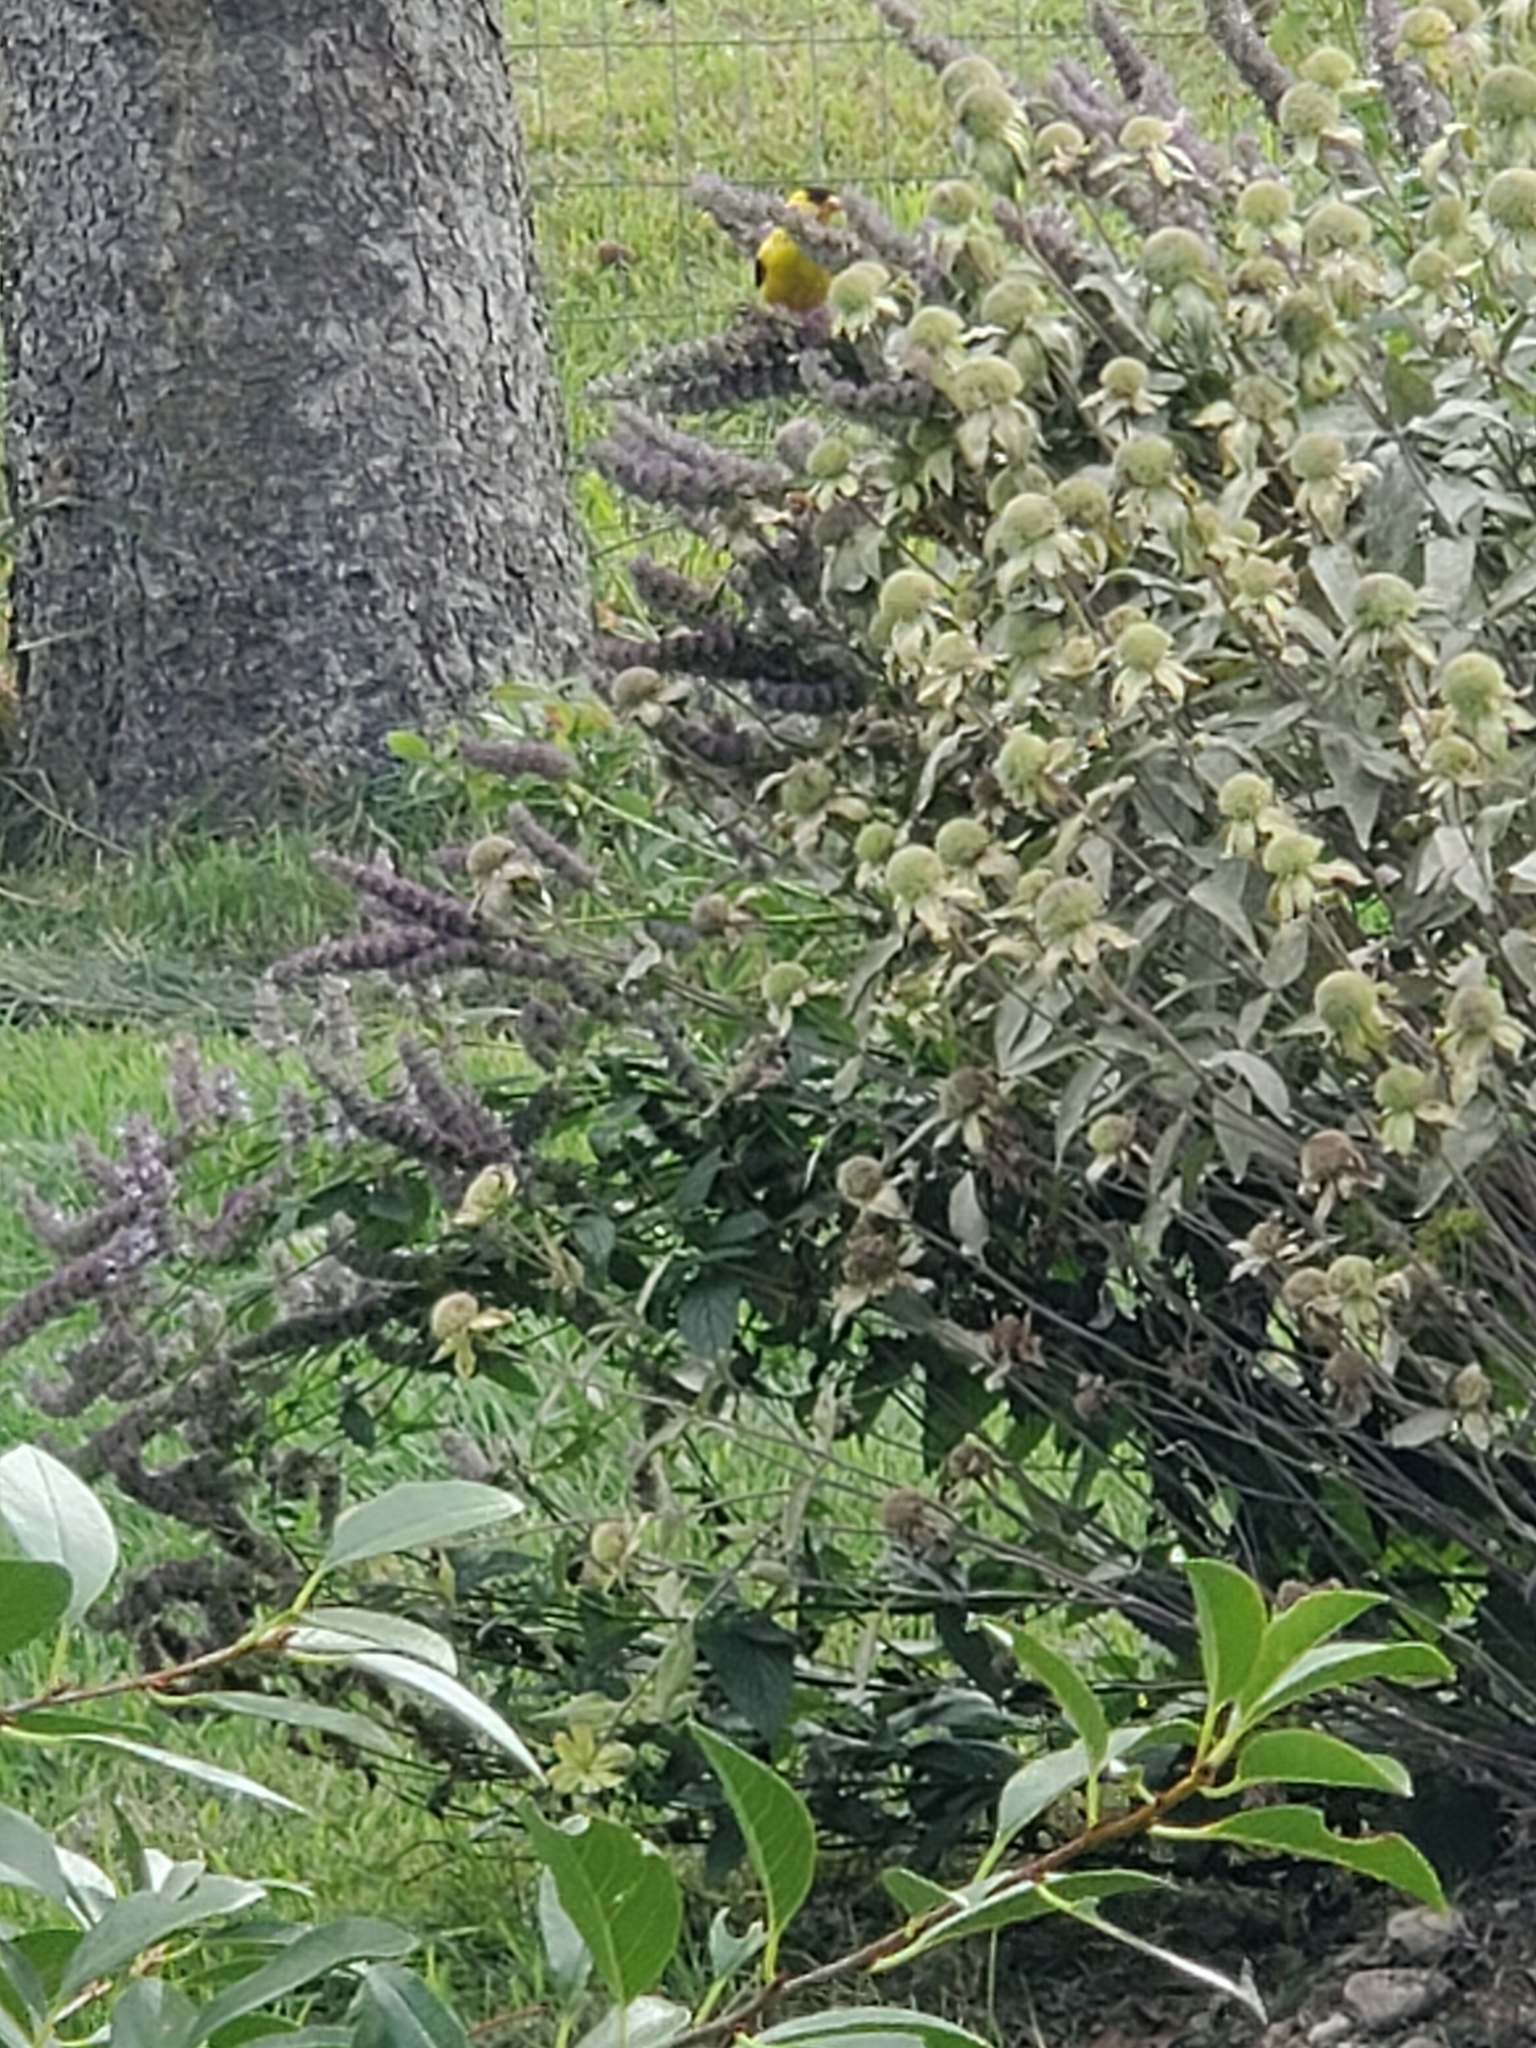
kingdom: Animalia
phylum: Chordata
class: Aves
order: Passeriformes
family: Fringillidae
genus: Spinus
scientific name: Spinus tristis
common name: American goldfinch
